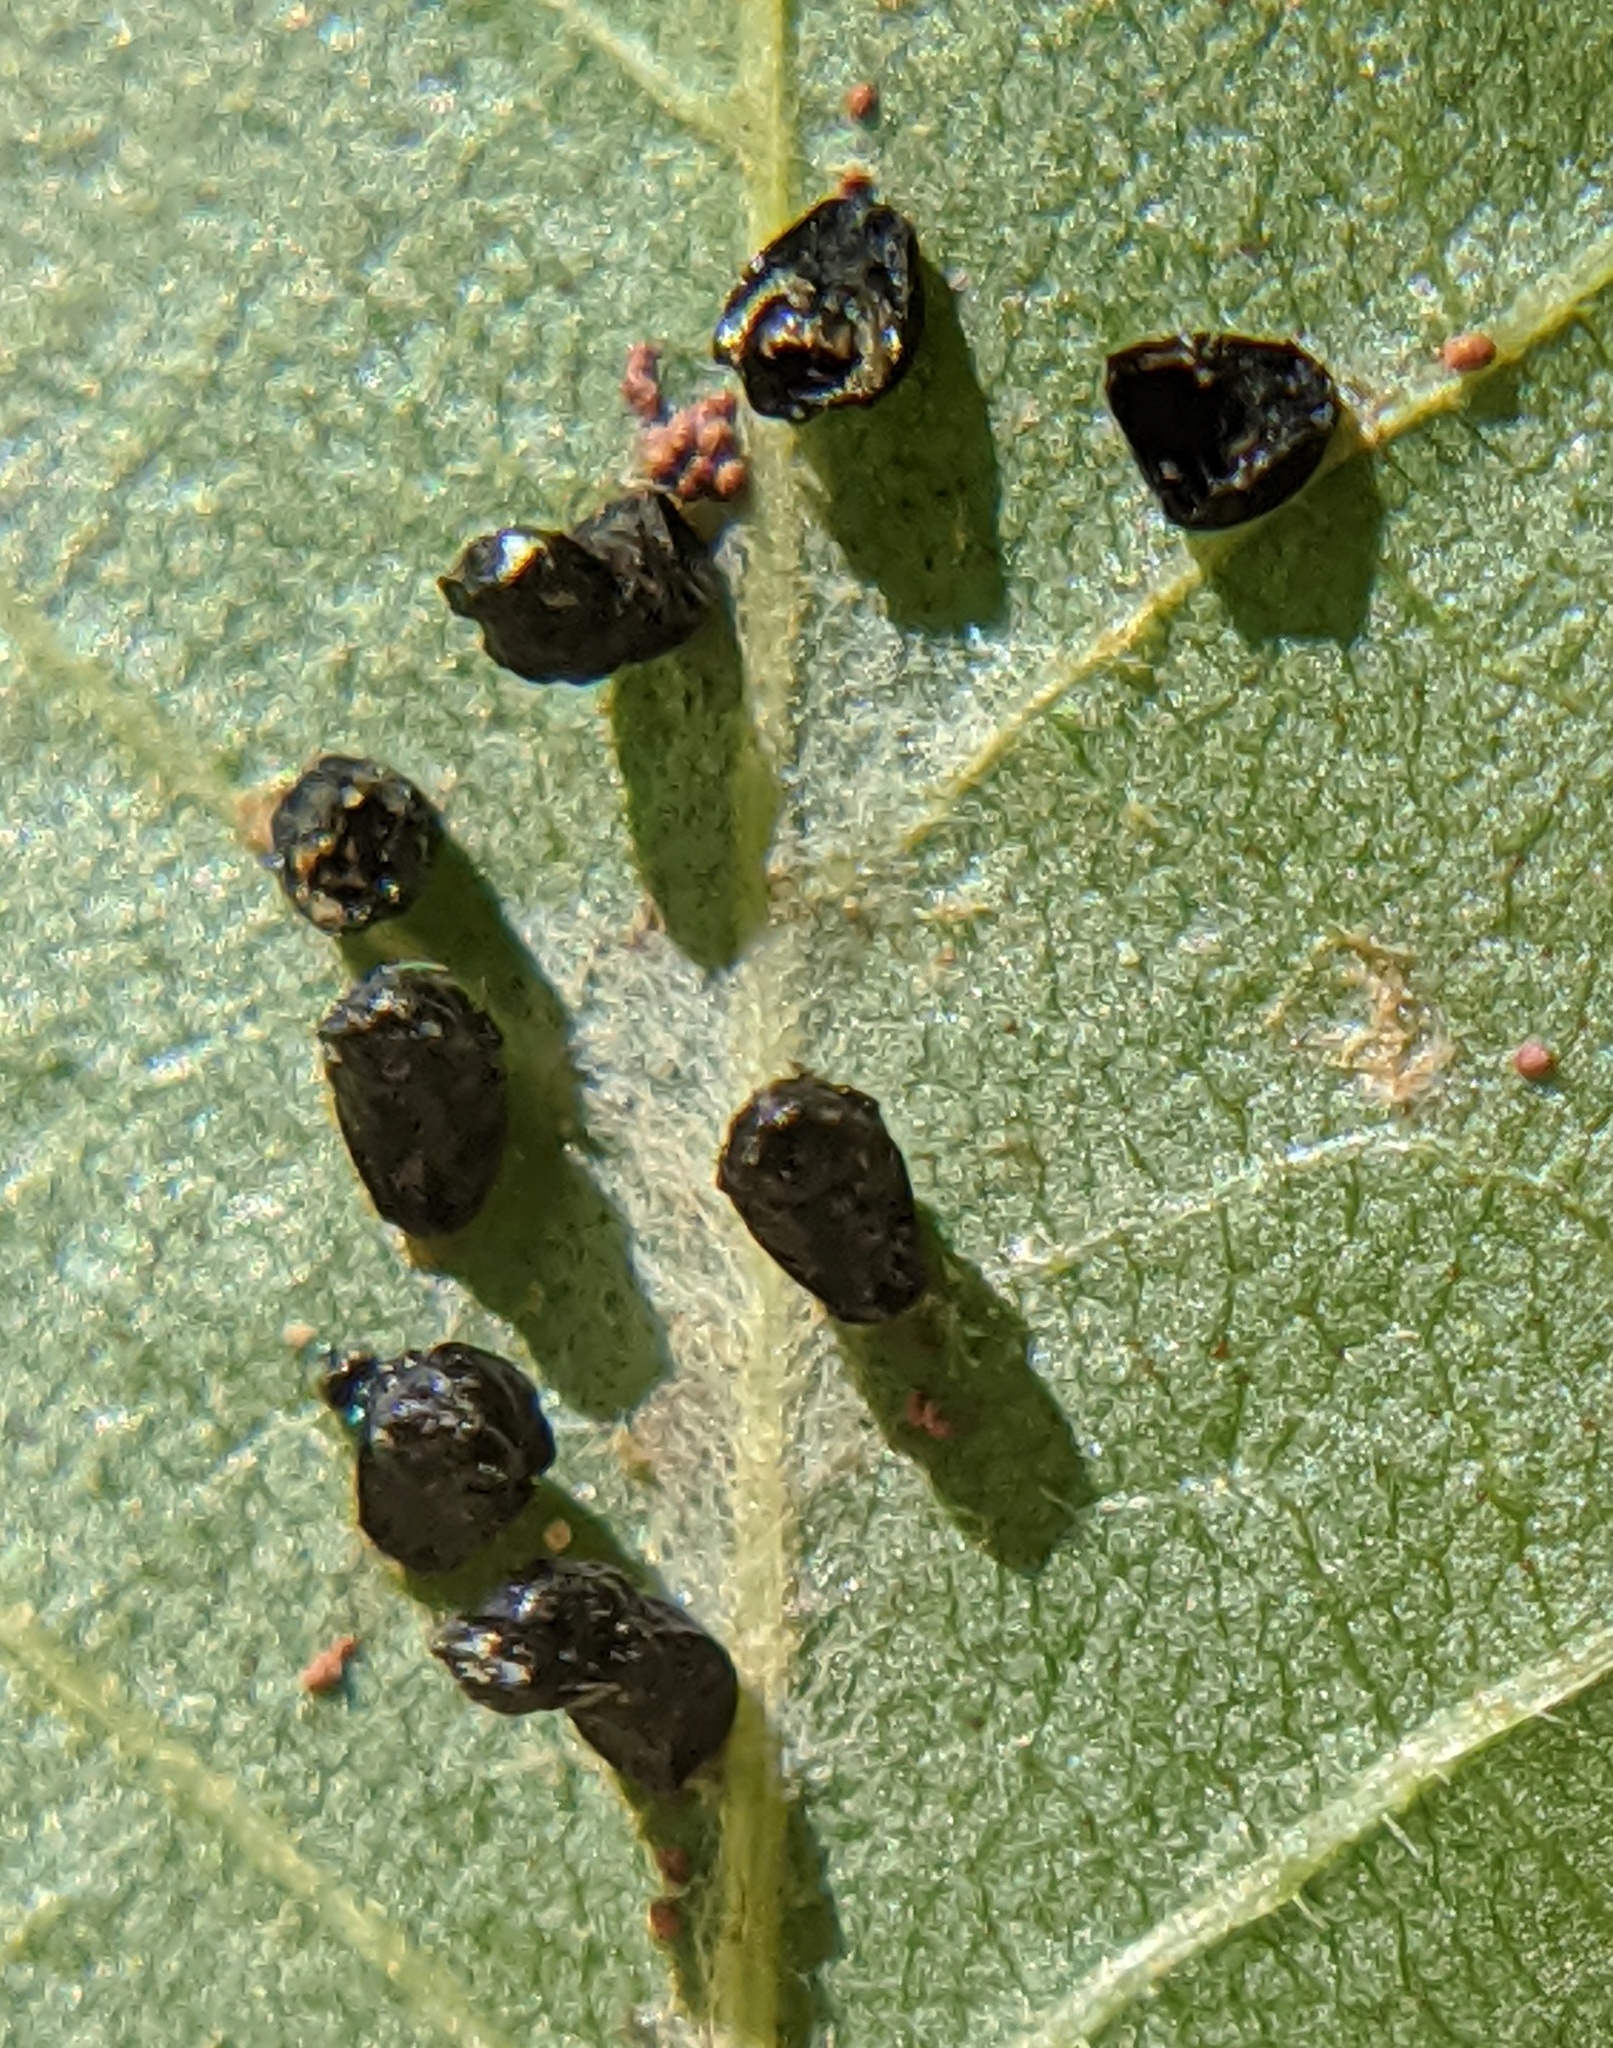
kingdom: Animalia
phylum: Arthropoda
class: Insecta
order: Hymenoptera
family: Eulophidae
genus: Eulophus
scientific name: Eulophus
